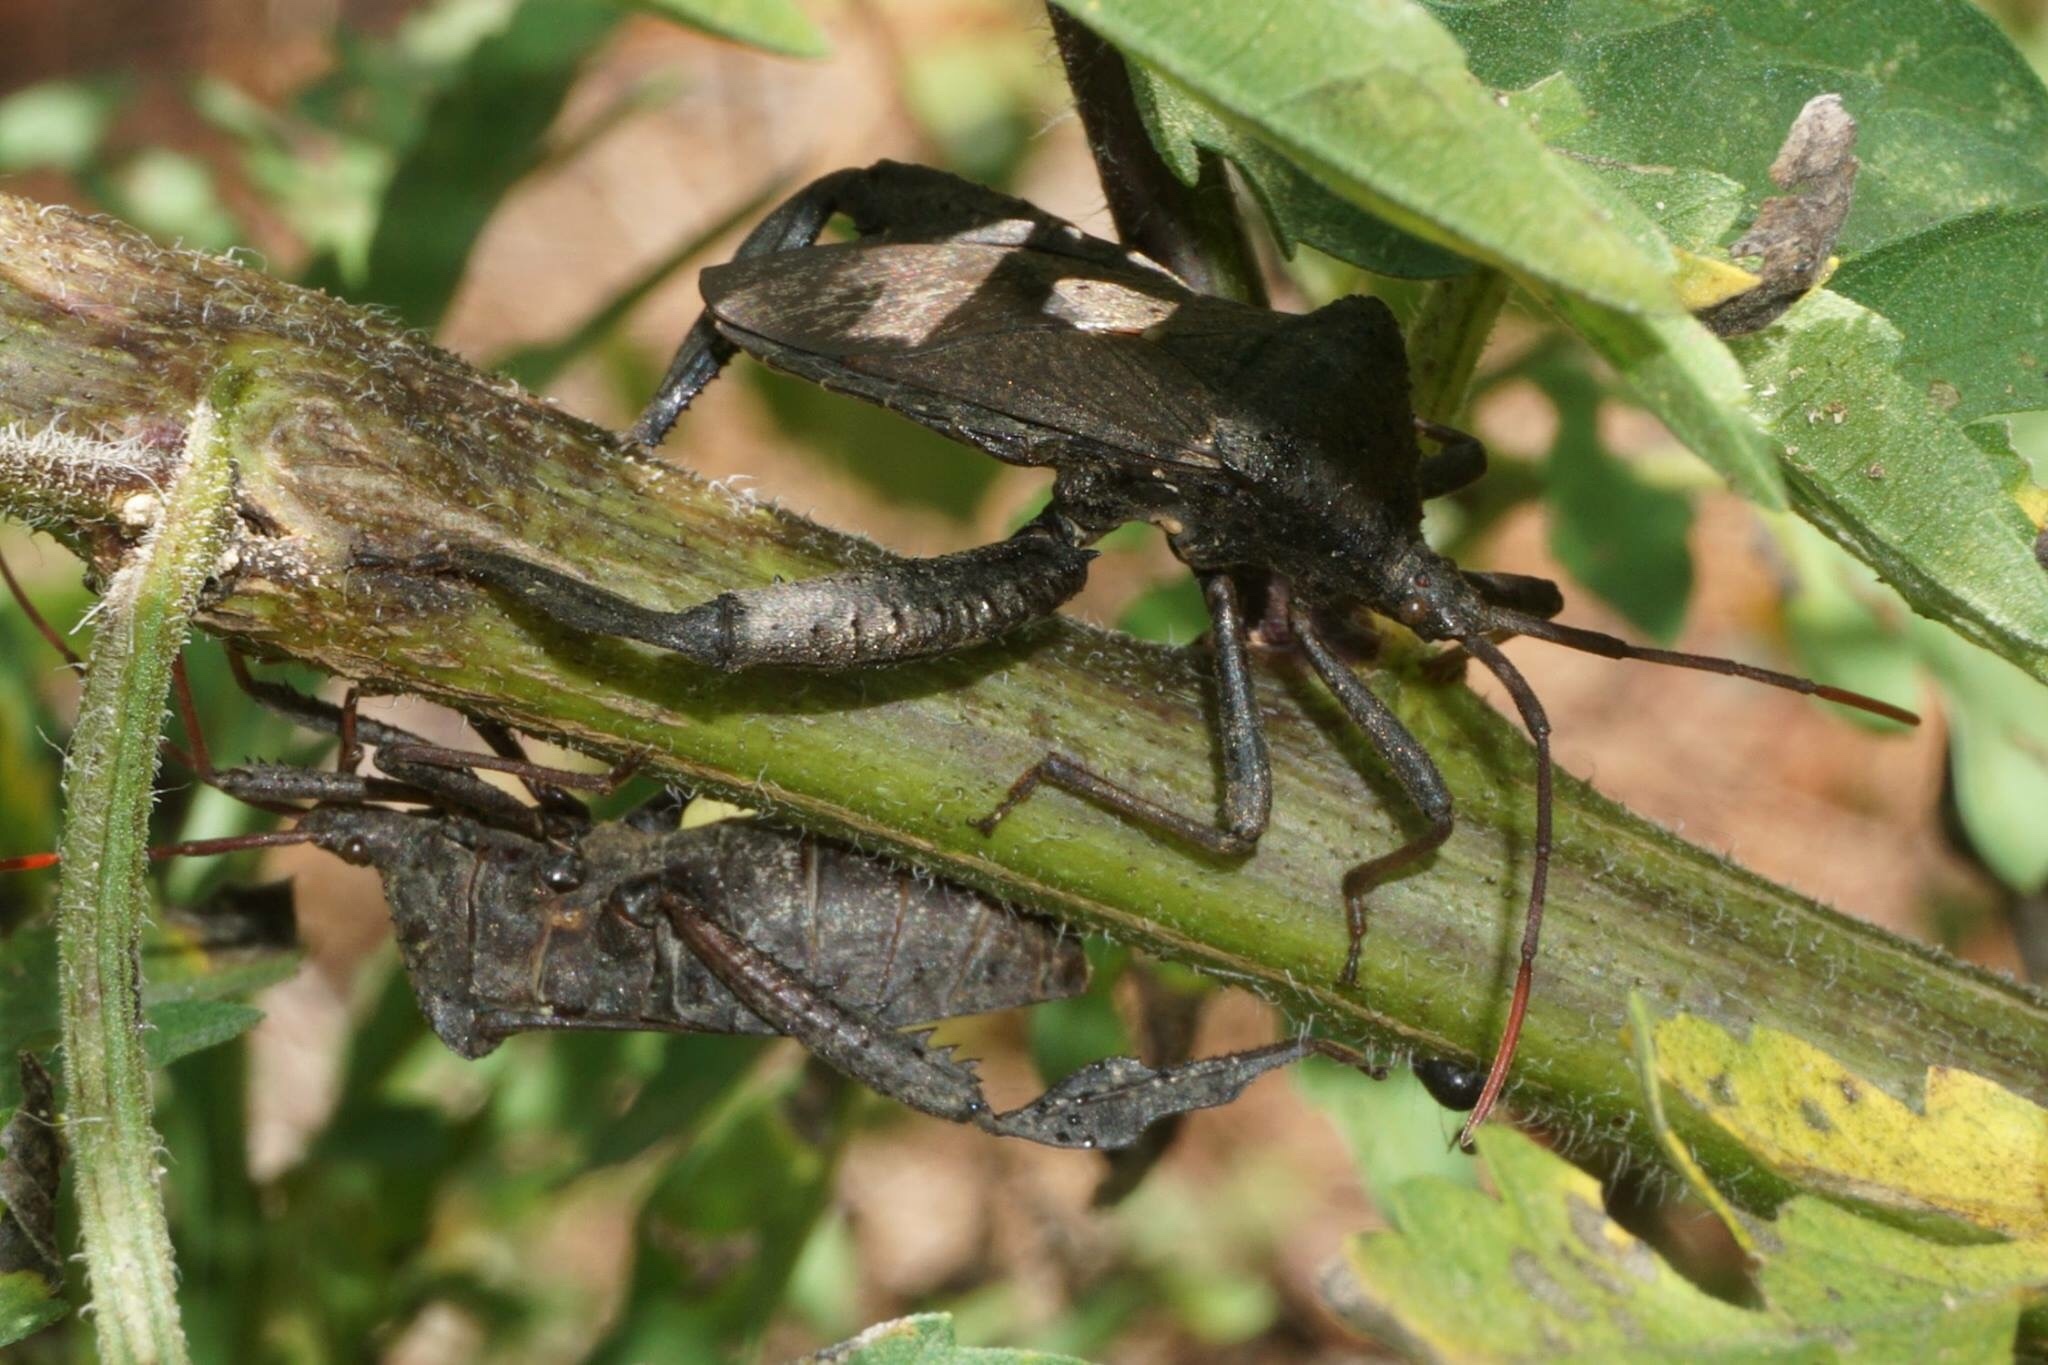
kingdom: Animalia
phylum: Arthropoda
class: Insecta
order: Hemiptera
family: Coreidae
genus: Acanthocephala
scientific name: Acanthocephala femorata
